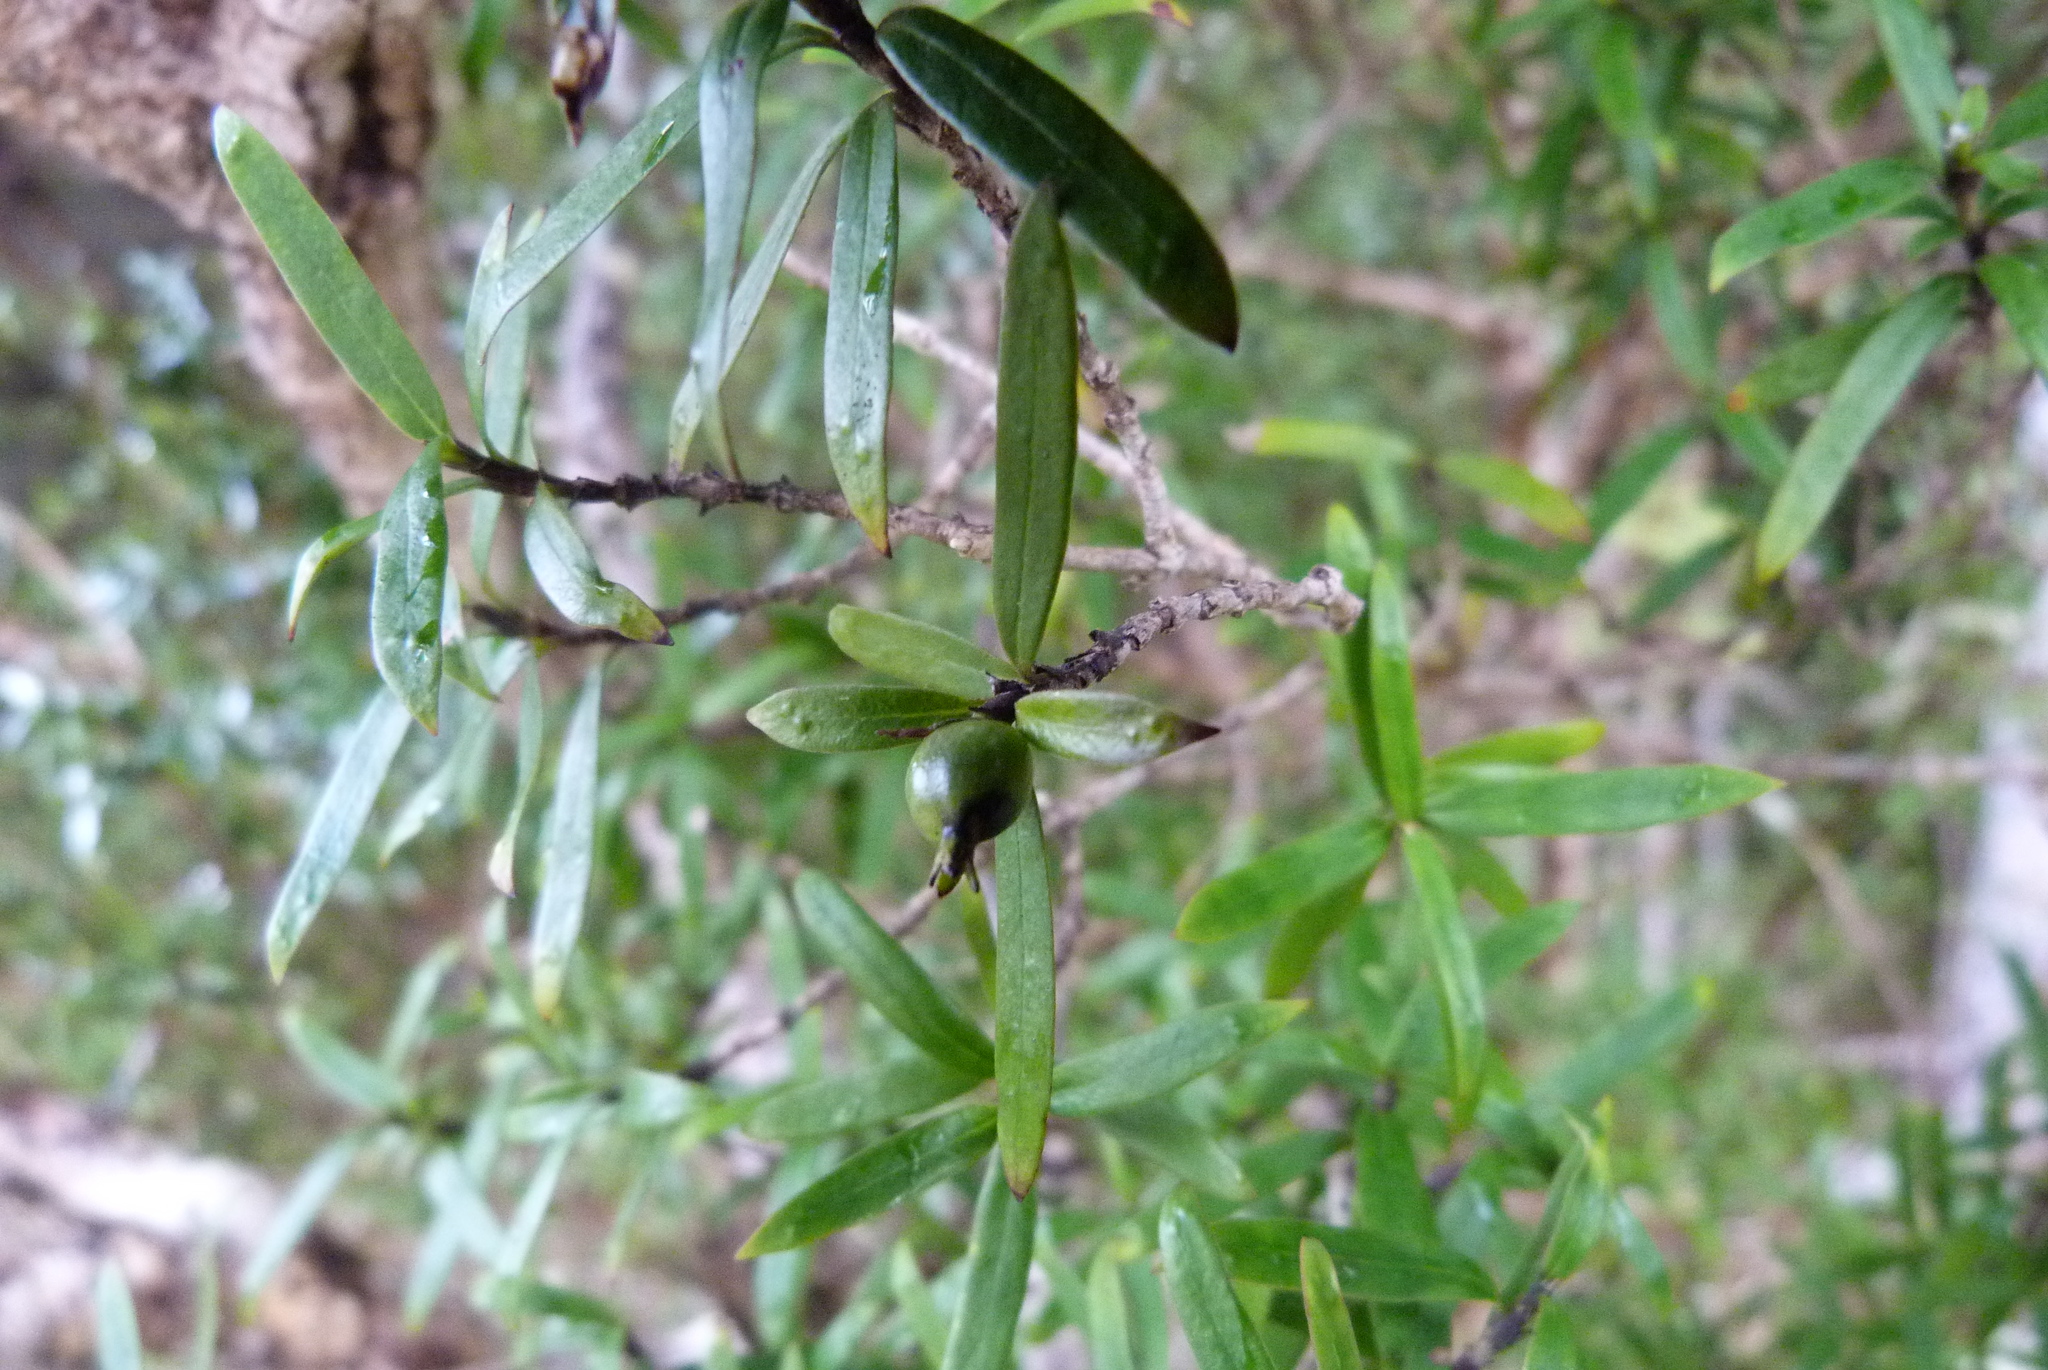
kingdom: Plantae
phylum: Tracheophyta
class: Magnoliopsida
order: Gentianales
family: Rubiaceae
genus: Coprosma
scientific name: Coprosma linariifolia
